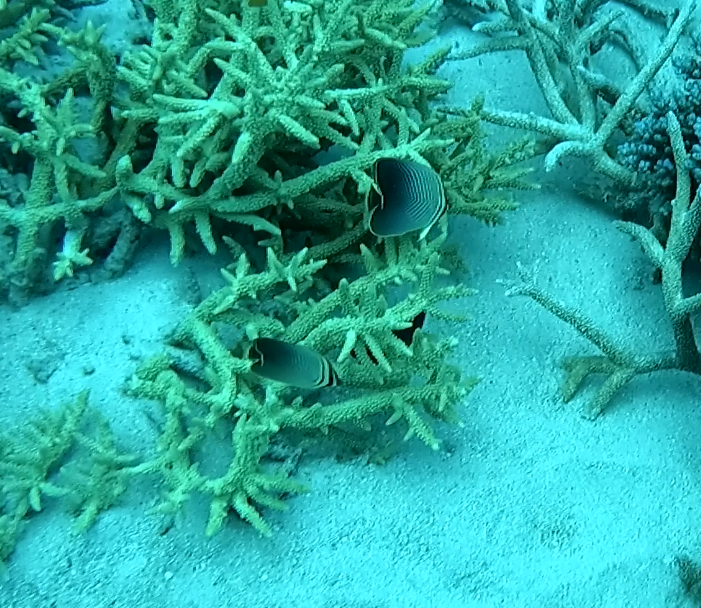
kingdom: Animalia
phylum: Chordata
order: Perciformes
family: Chaetodontidae
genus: Chaetodon
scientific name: Chaetodon baronessa
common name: Triangular butterflyfish
